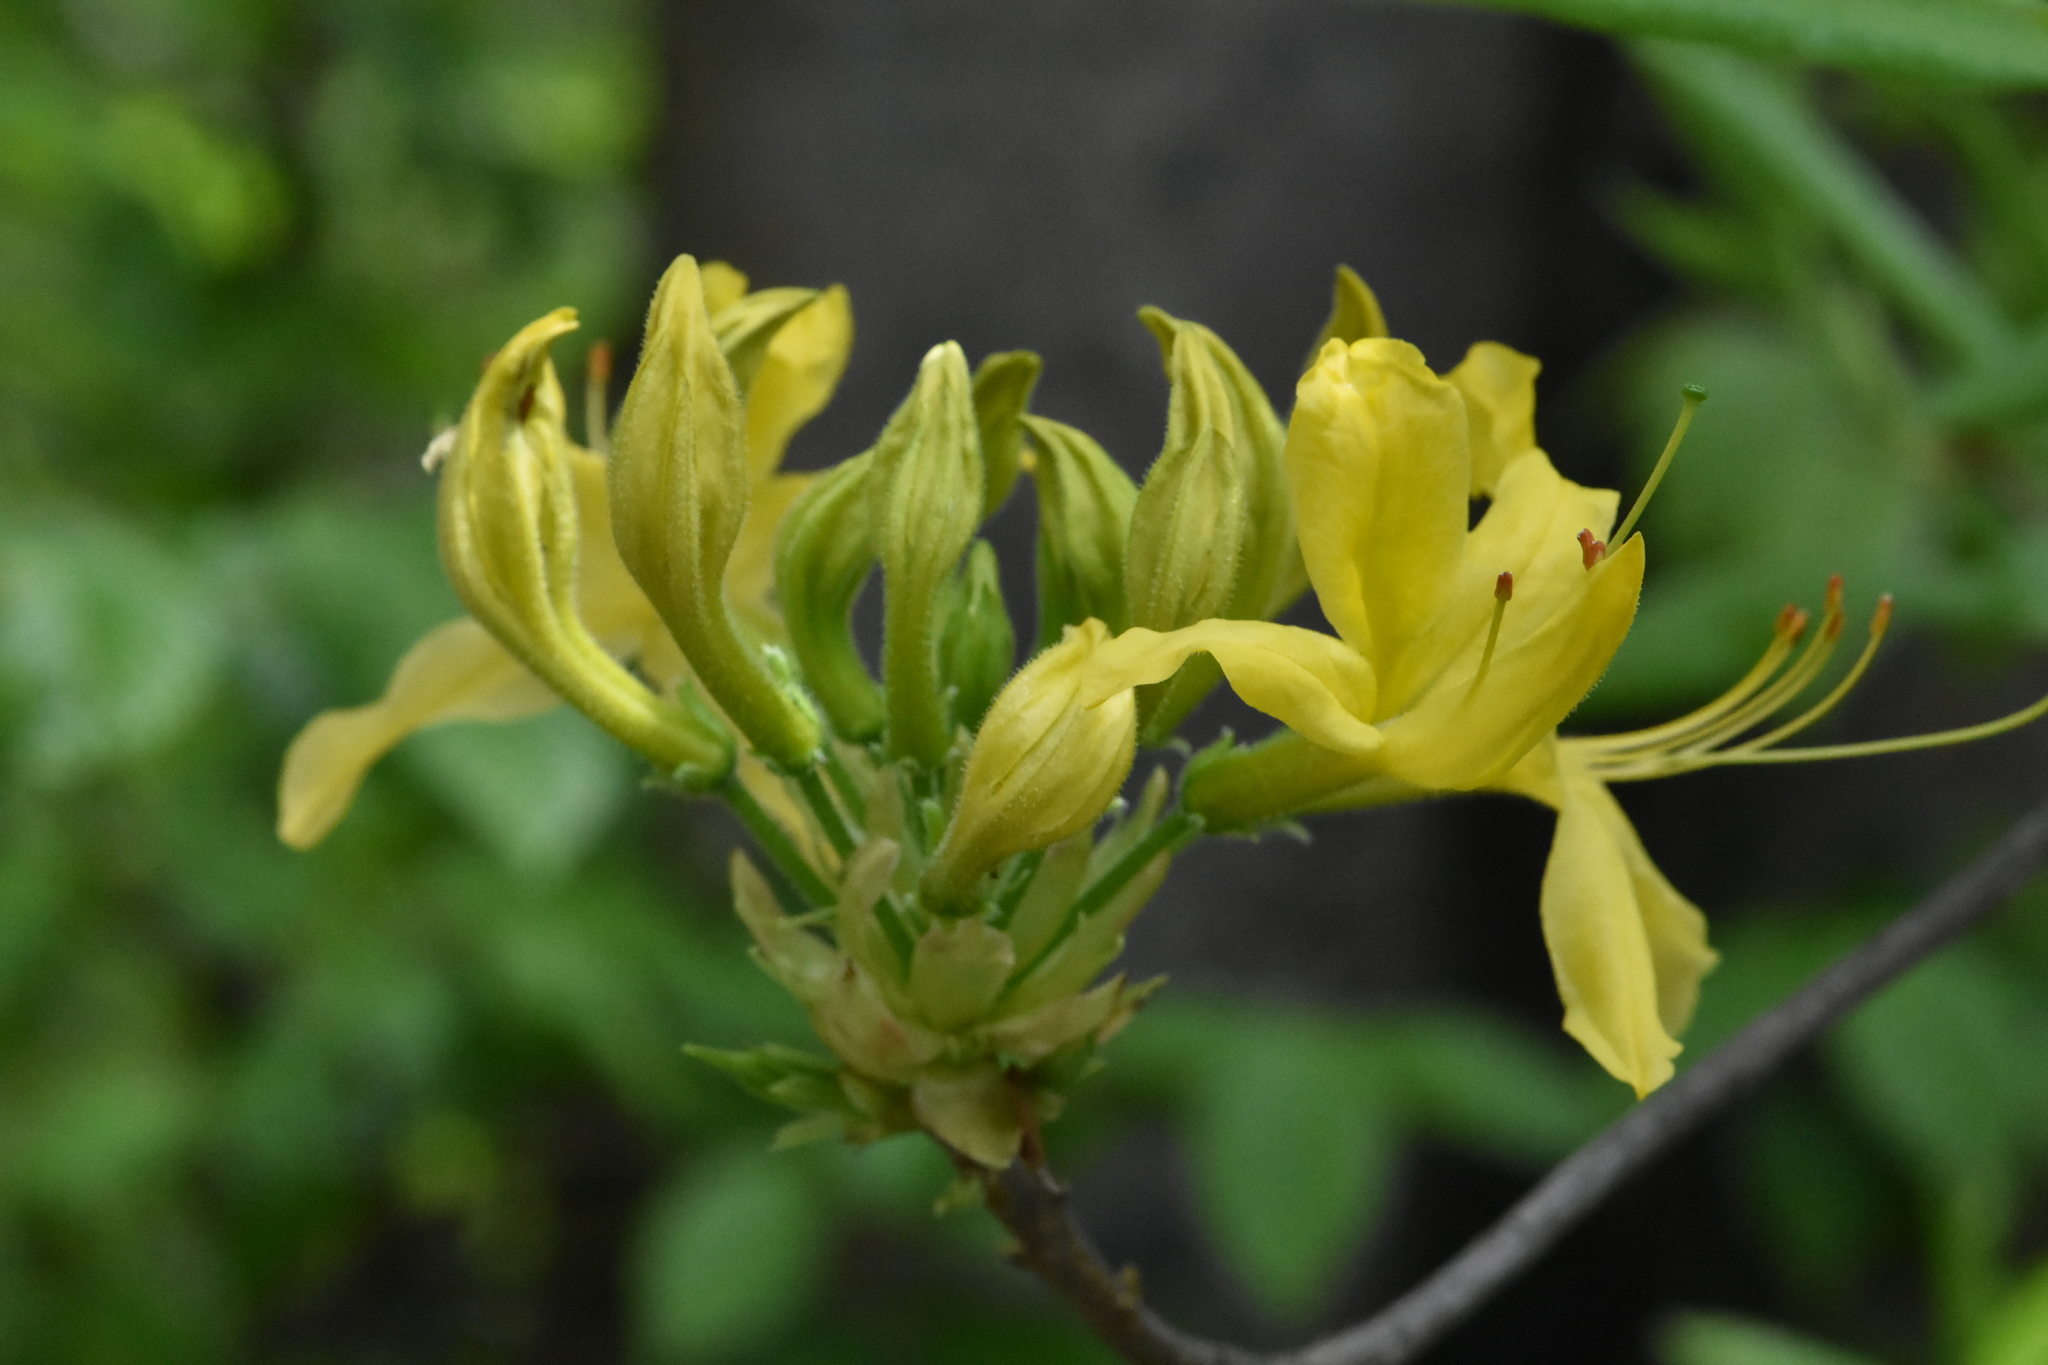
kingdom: Plantae
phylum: Tracheophyta
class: Magnoliopsida
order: Ericales
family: Ericaceae
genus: Rhododendron
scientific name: Rhododendron luteum
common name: Yellow azalea
